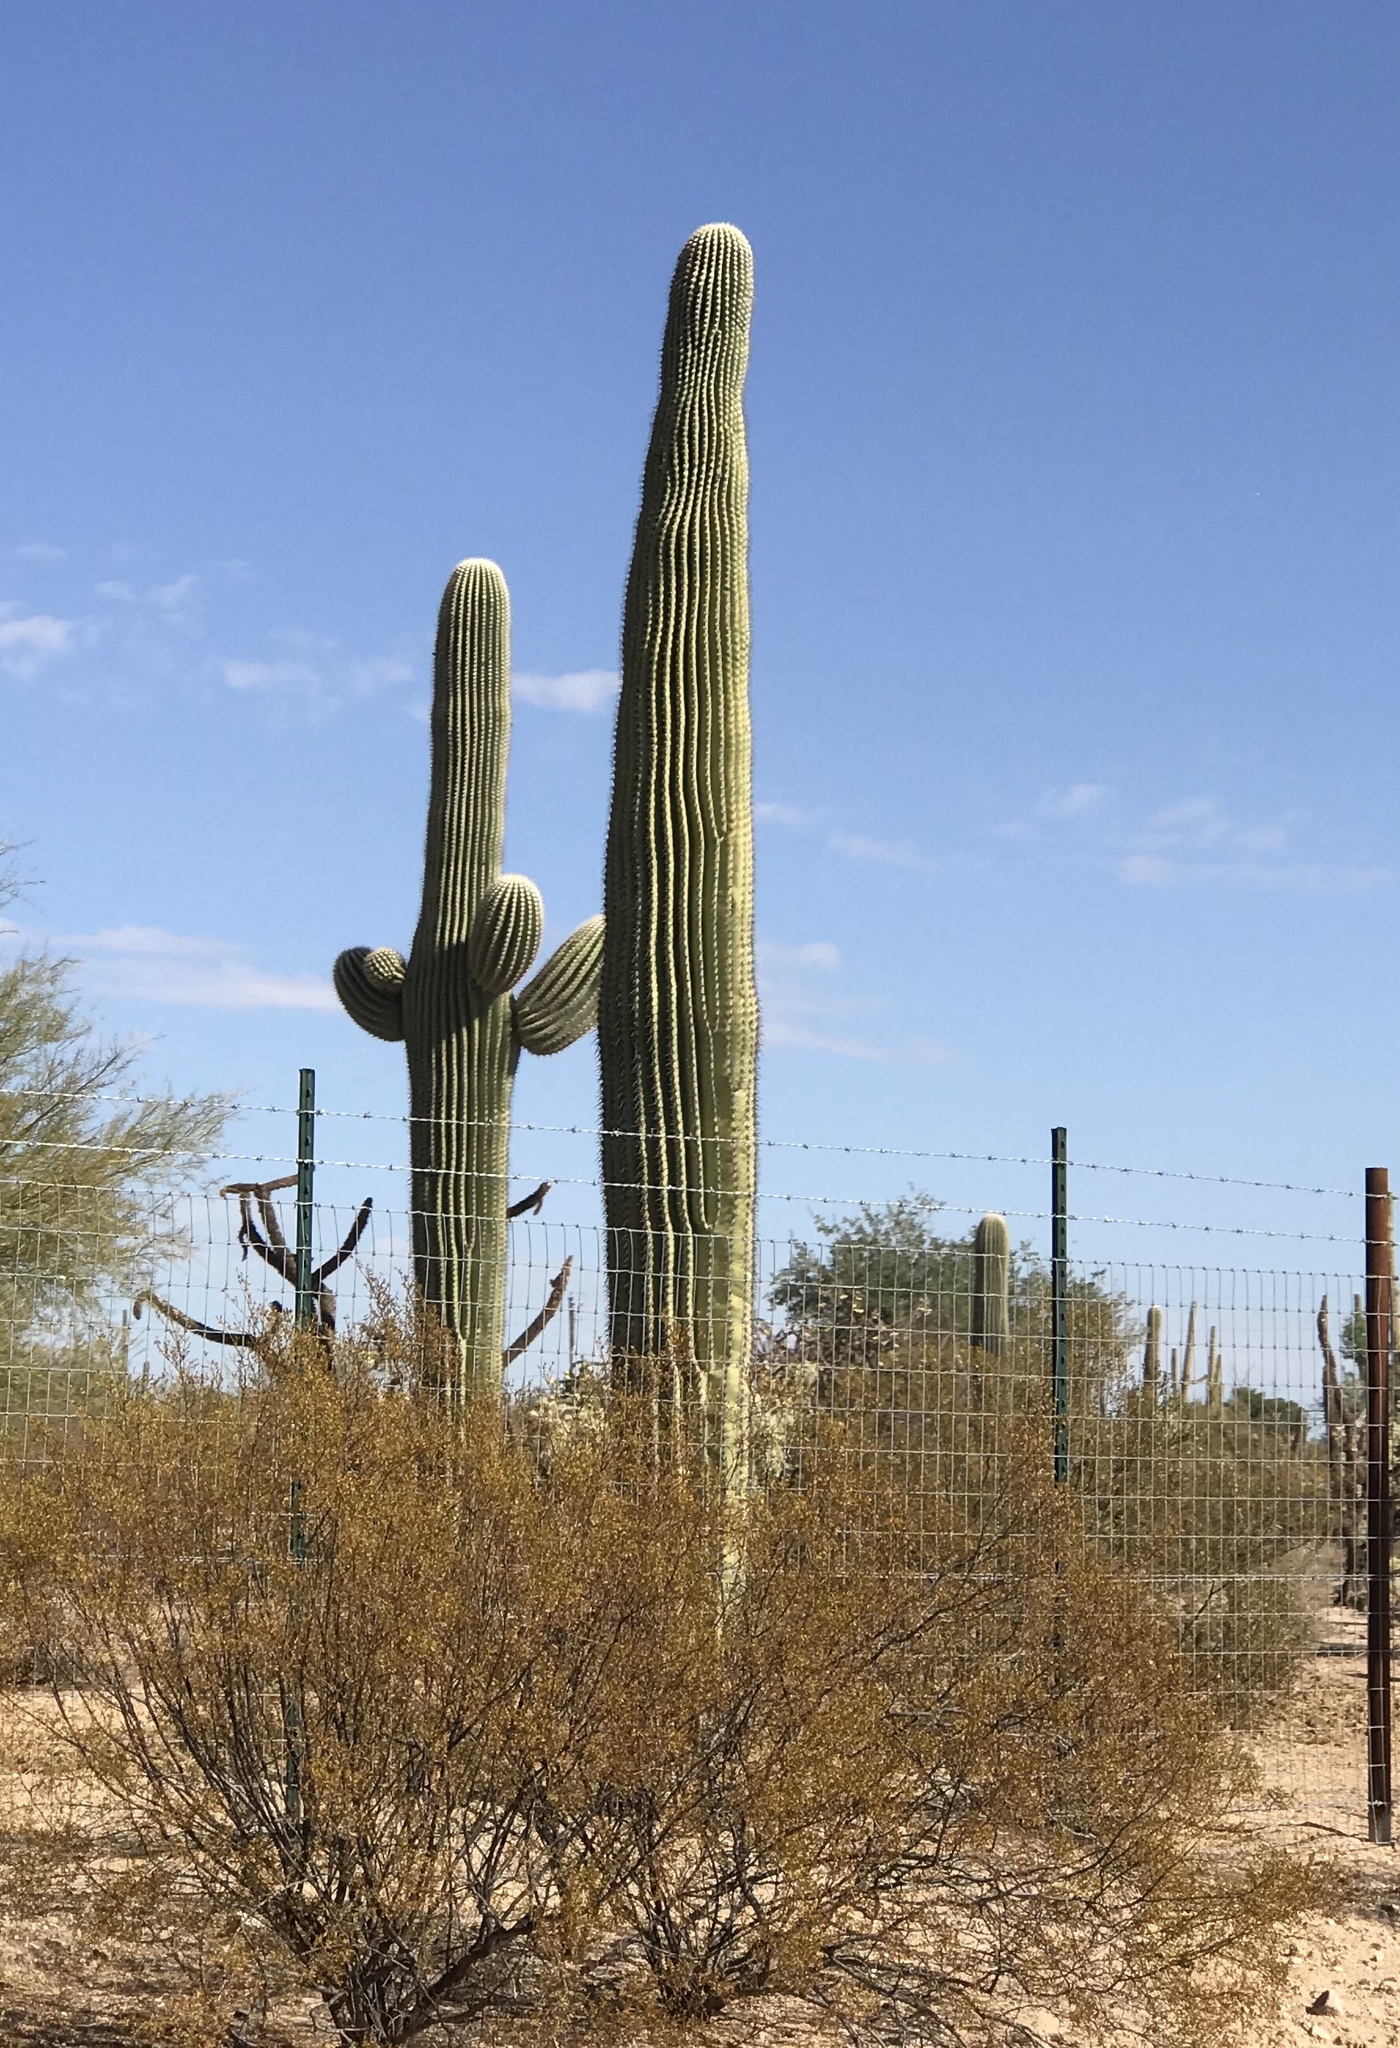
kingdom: Plantae
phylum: Tracheophyta
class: Magnoliopsida
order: Caryophyllales
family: Cactaceae
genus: Carnegiea
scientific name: Carnegiea gigantea
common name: Saguaro
